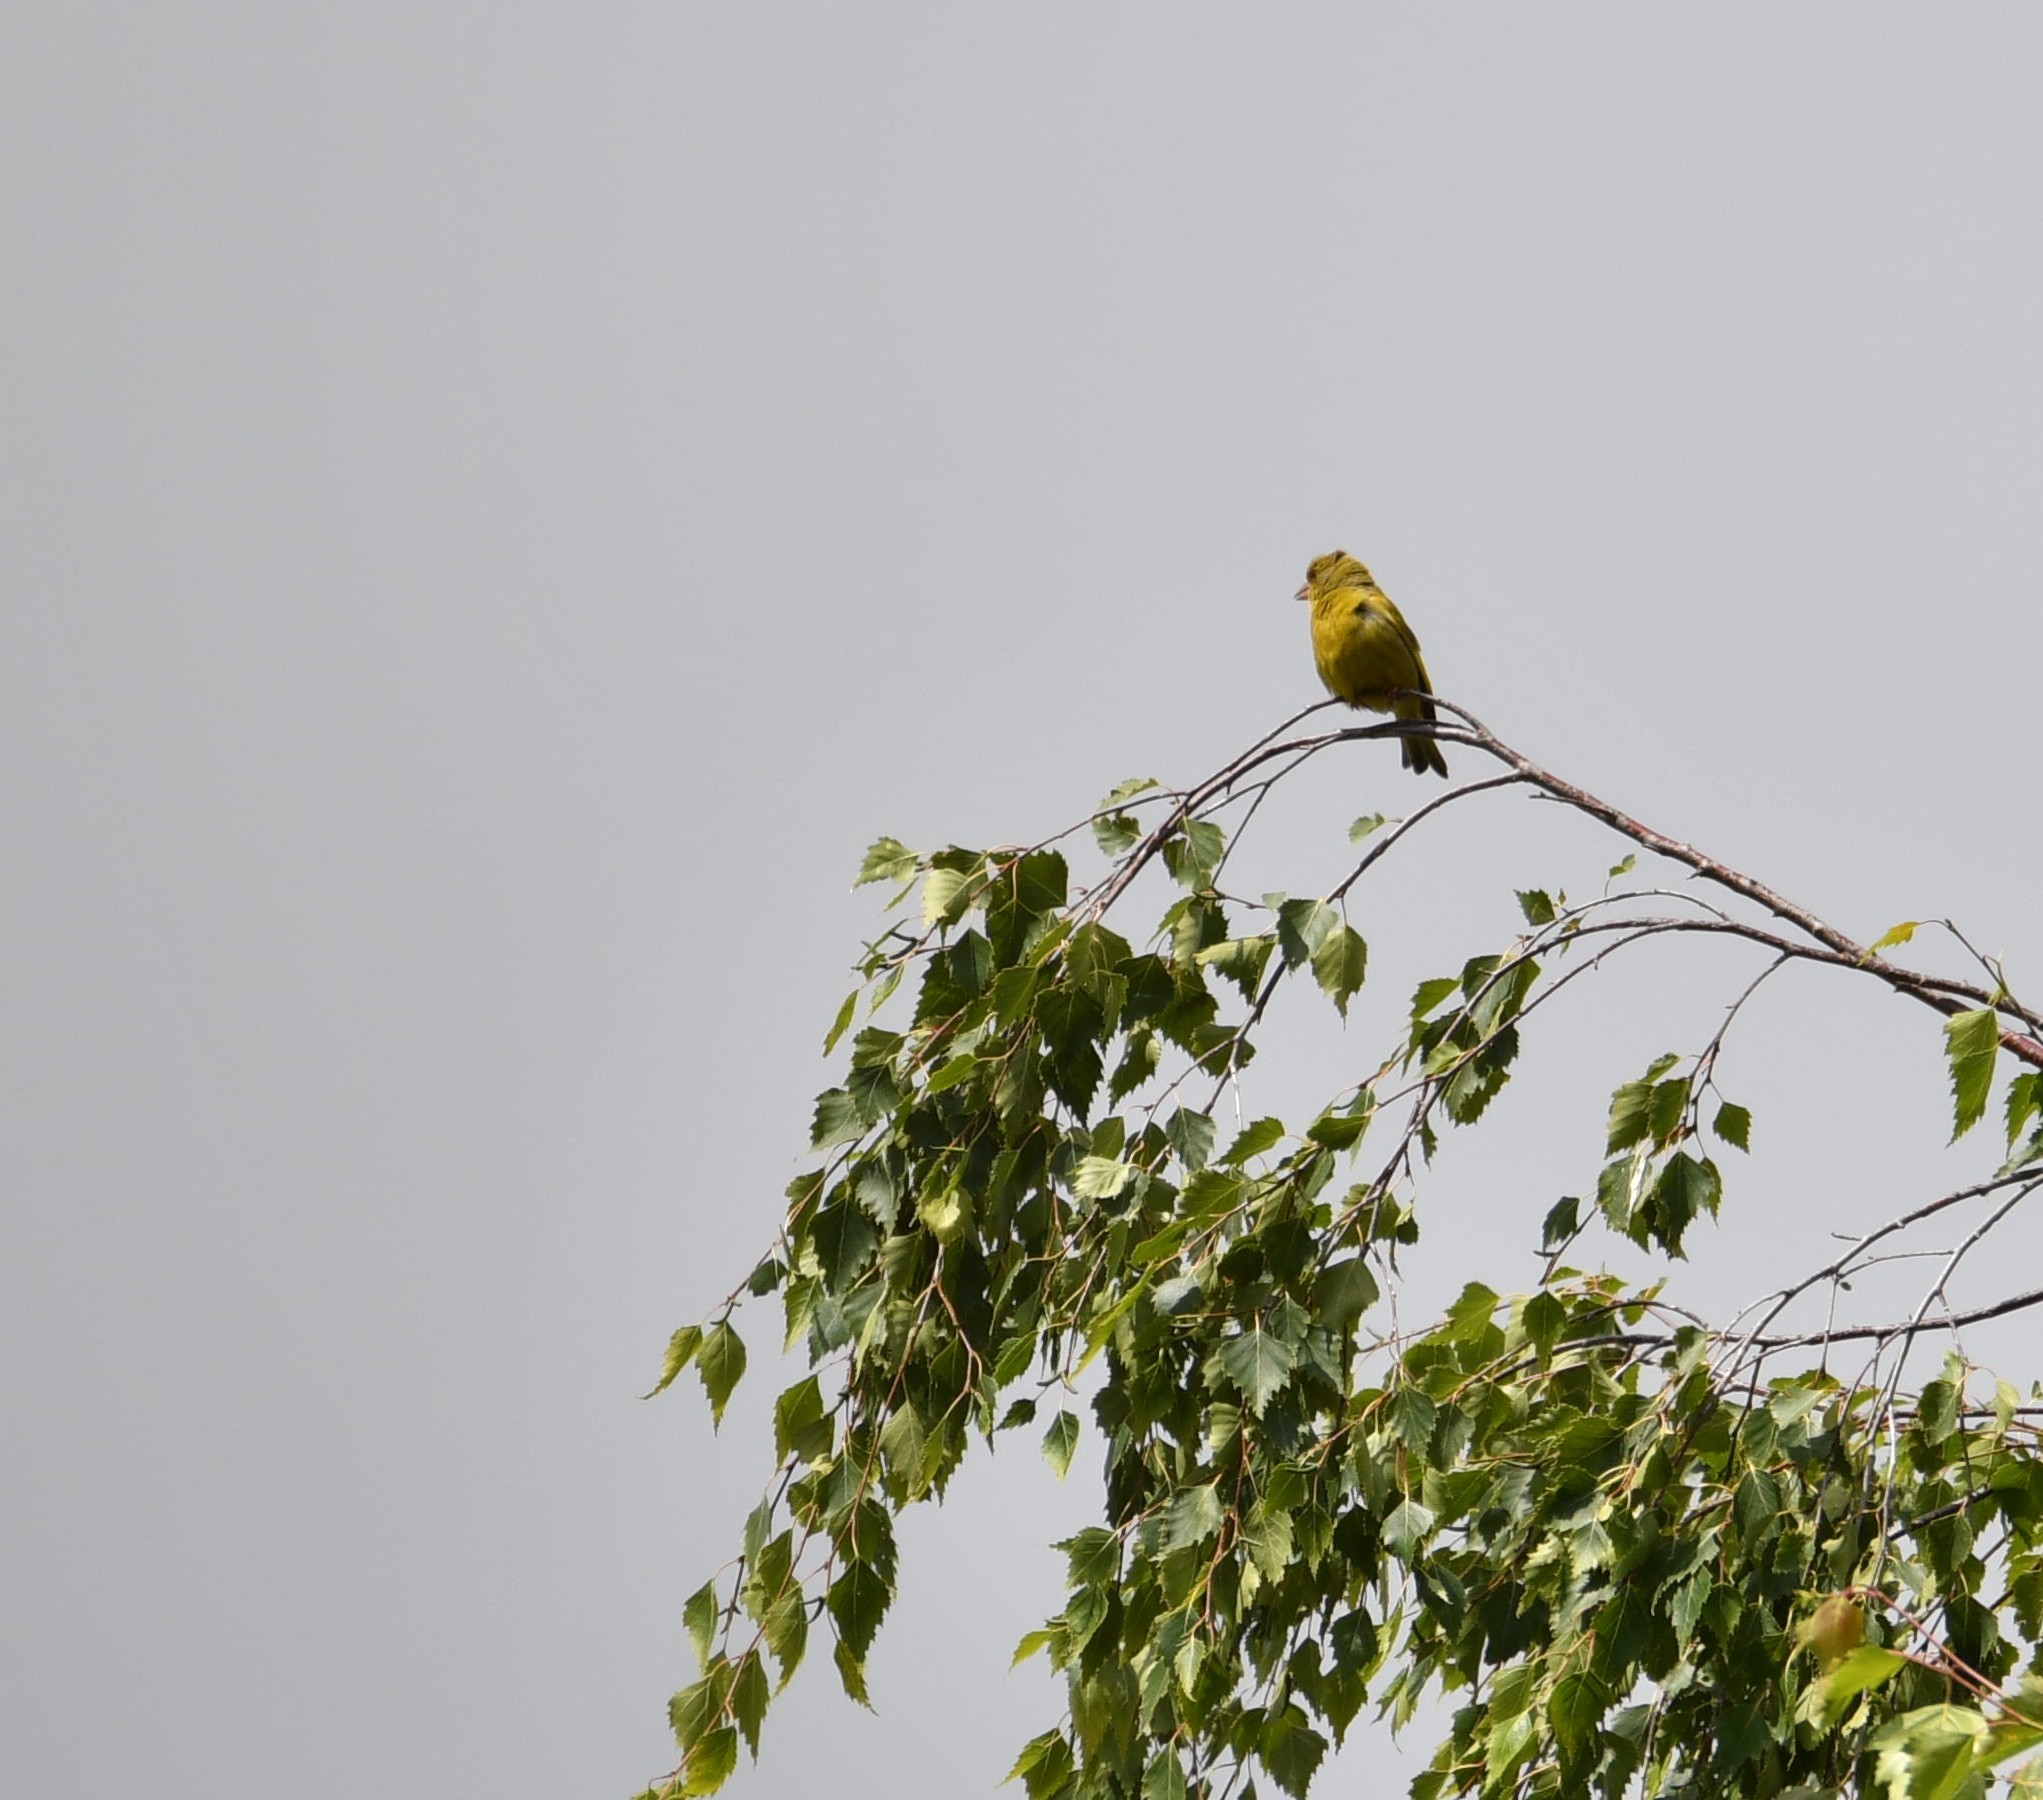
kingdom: Plantae
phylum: Tracheophyta
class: Liliopsida
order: Poales
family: Poaceae
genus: Chloris
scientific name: Chloris chloris
